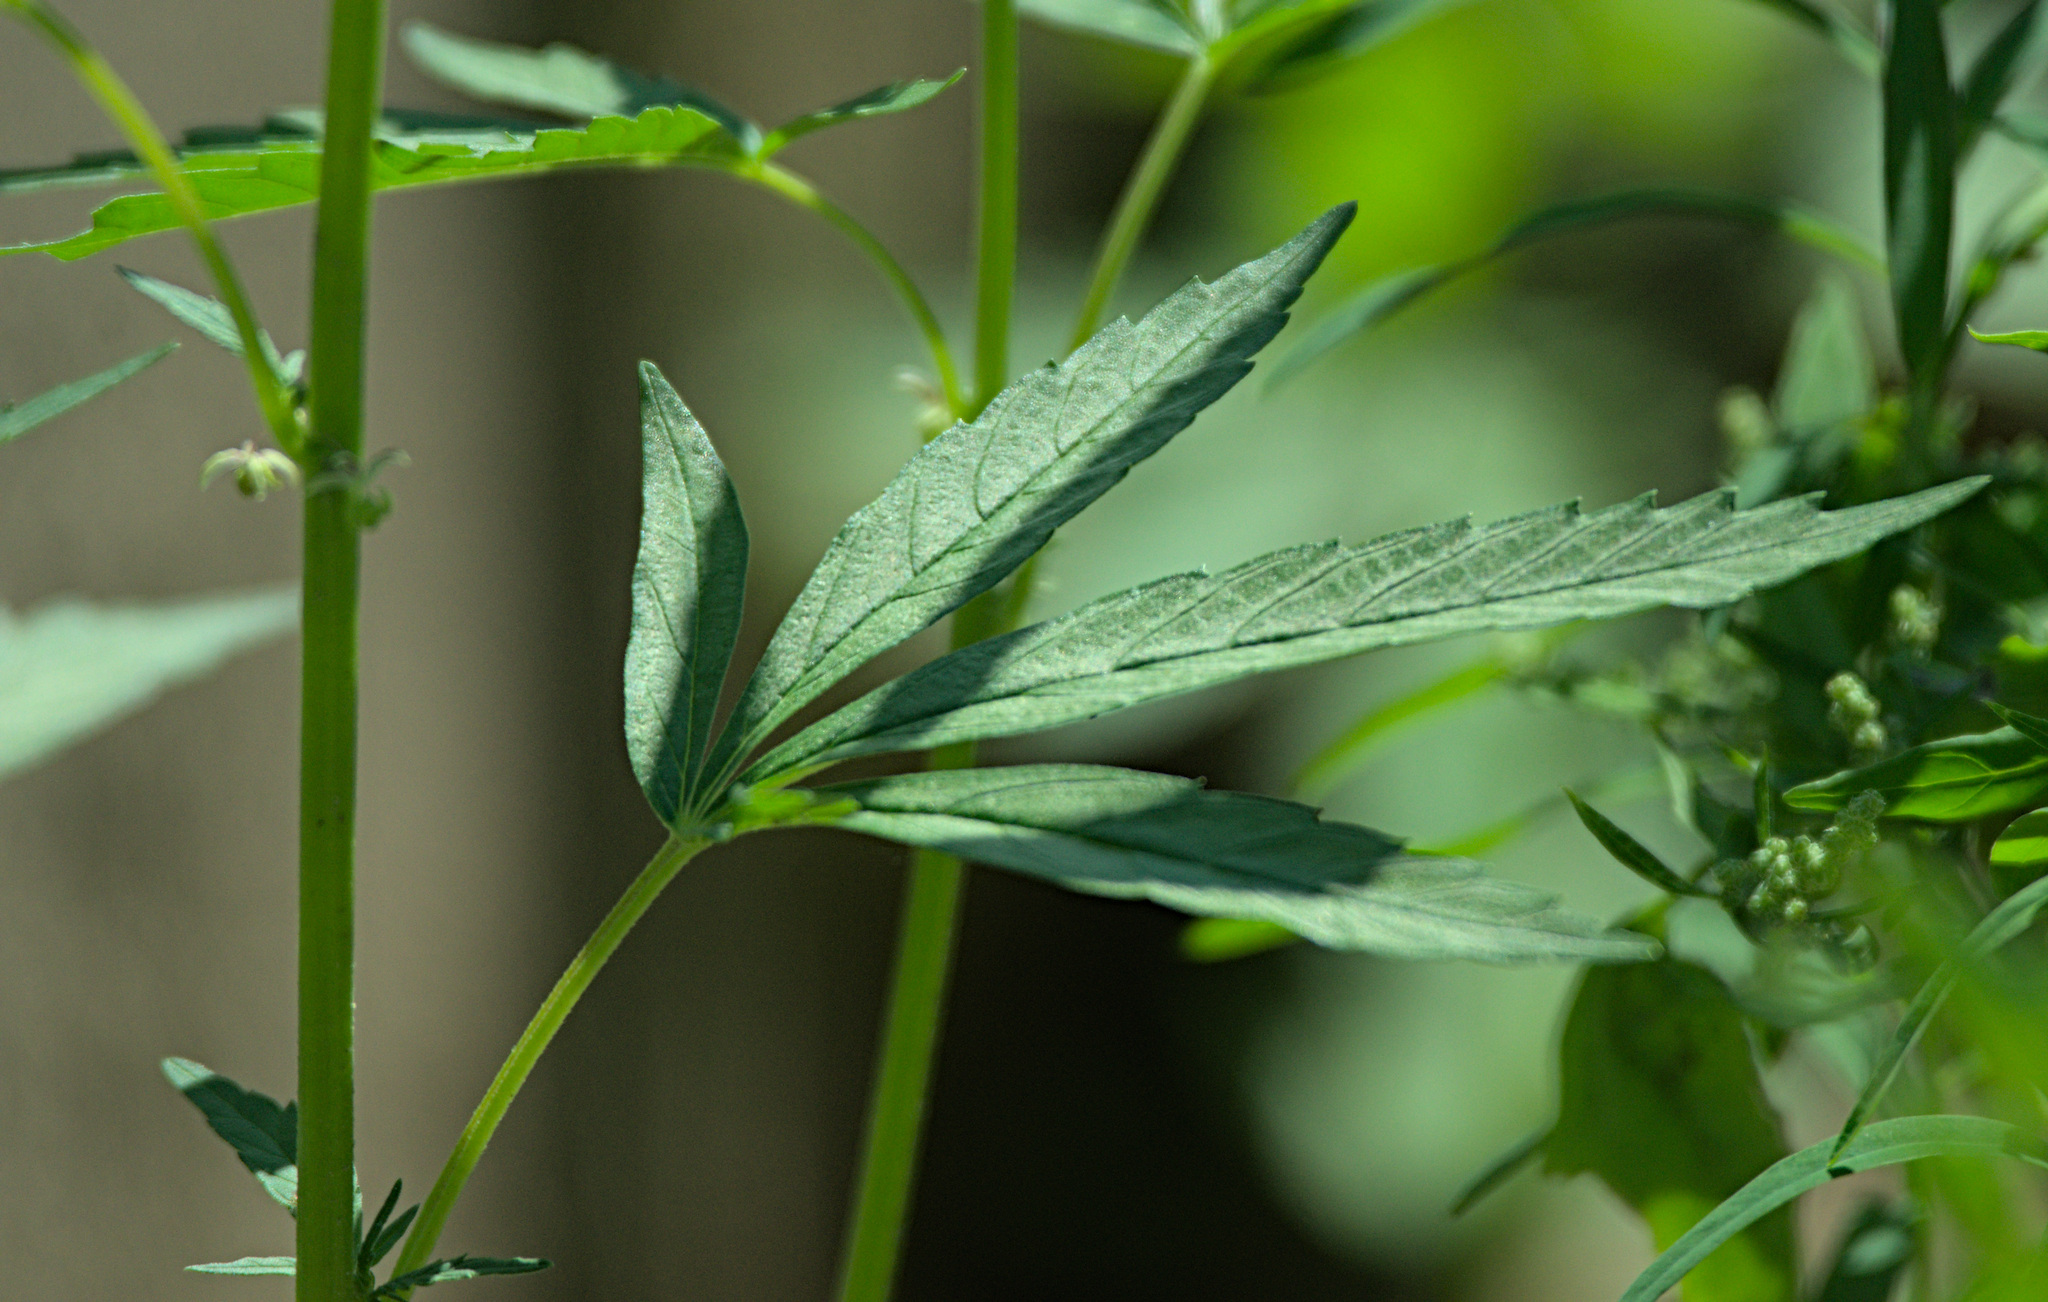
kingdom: Plantae
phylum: Tracheophyta
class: Magnoliopsida
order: Rosales
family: Cannabaceae
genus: Cannabis
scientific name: Cannabis sativa
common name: Hemp
